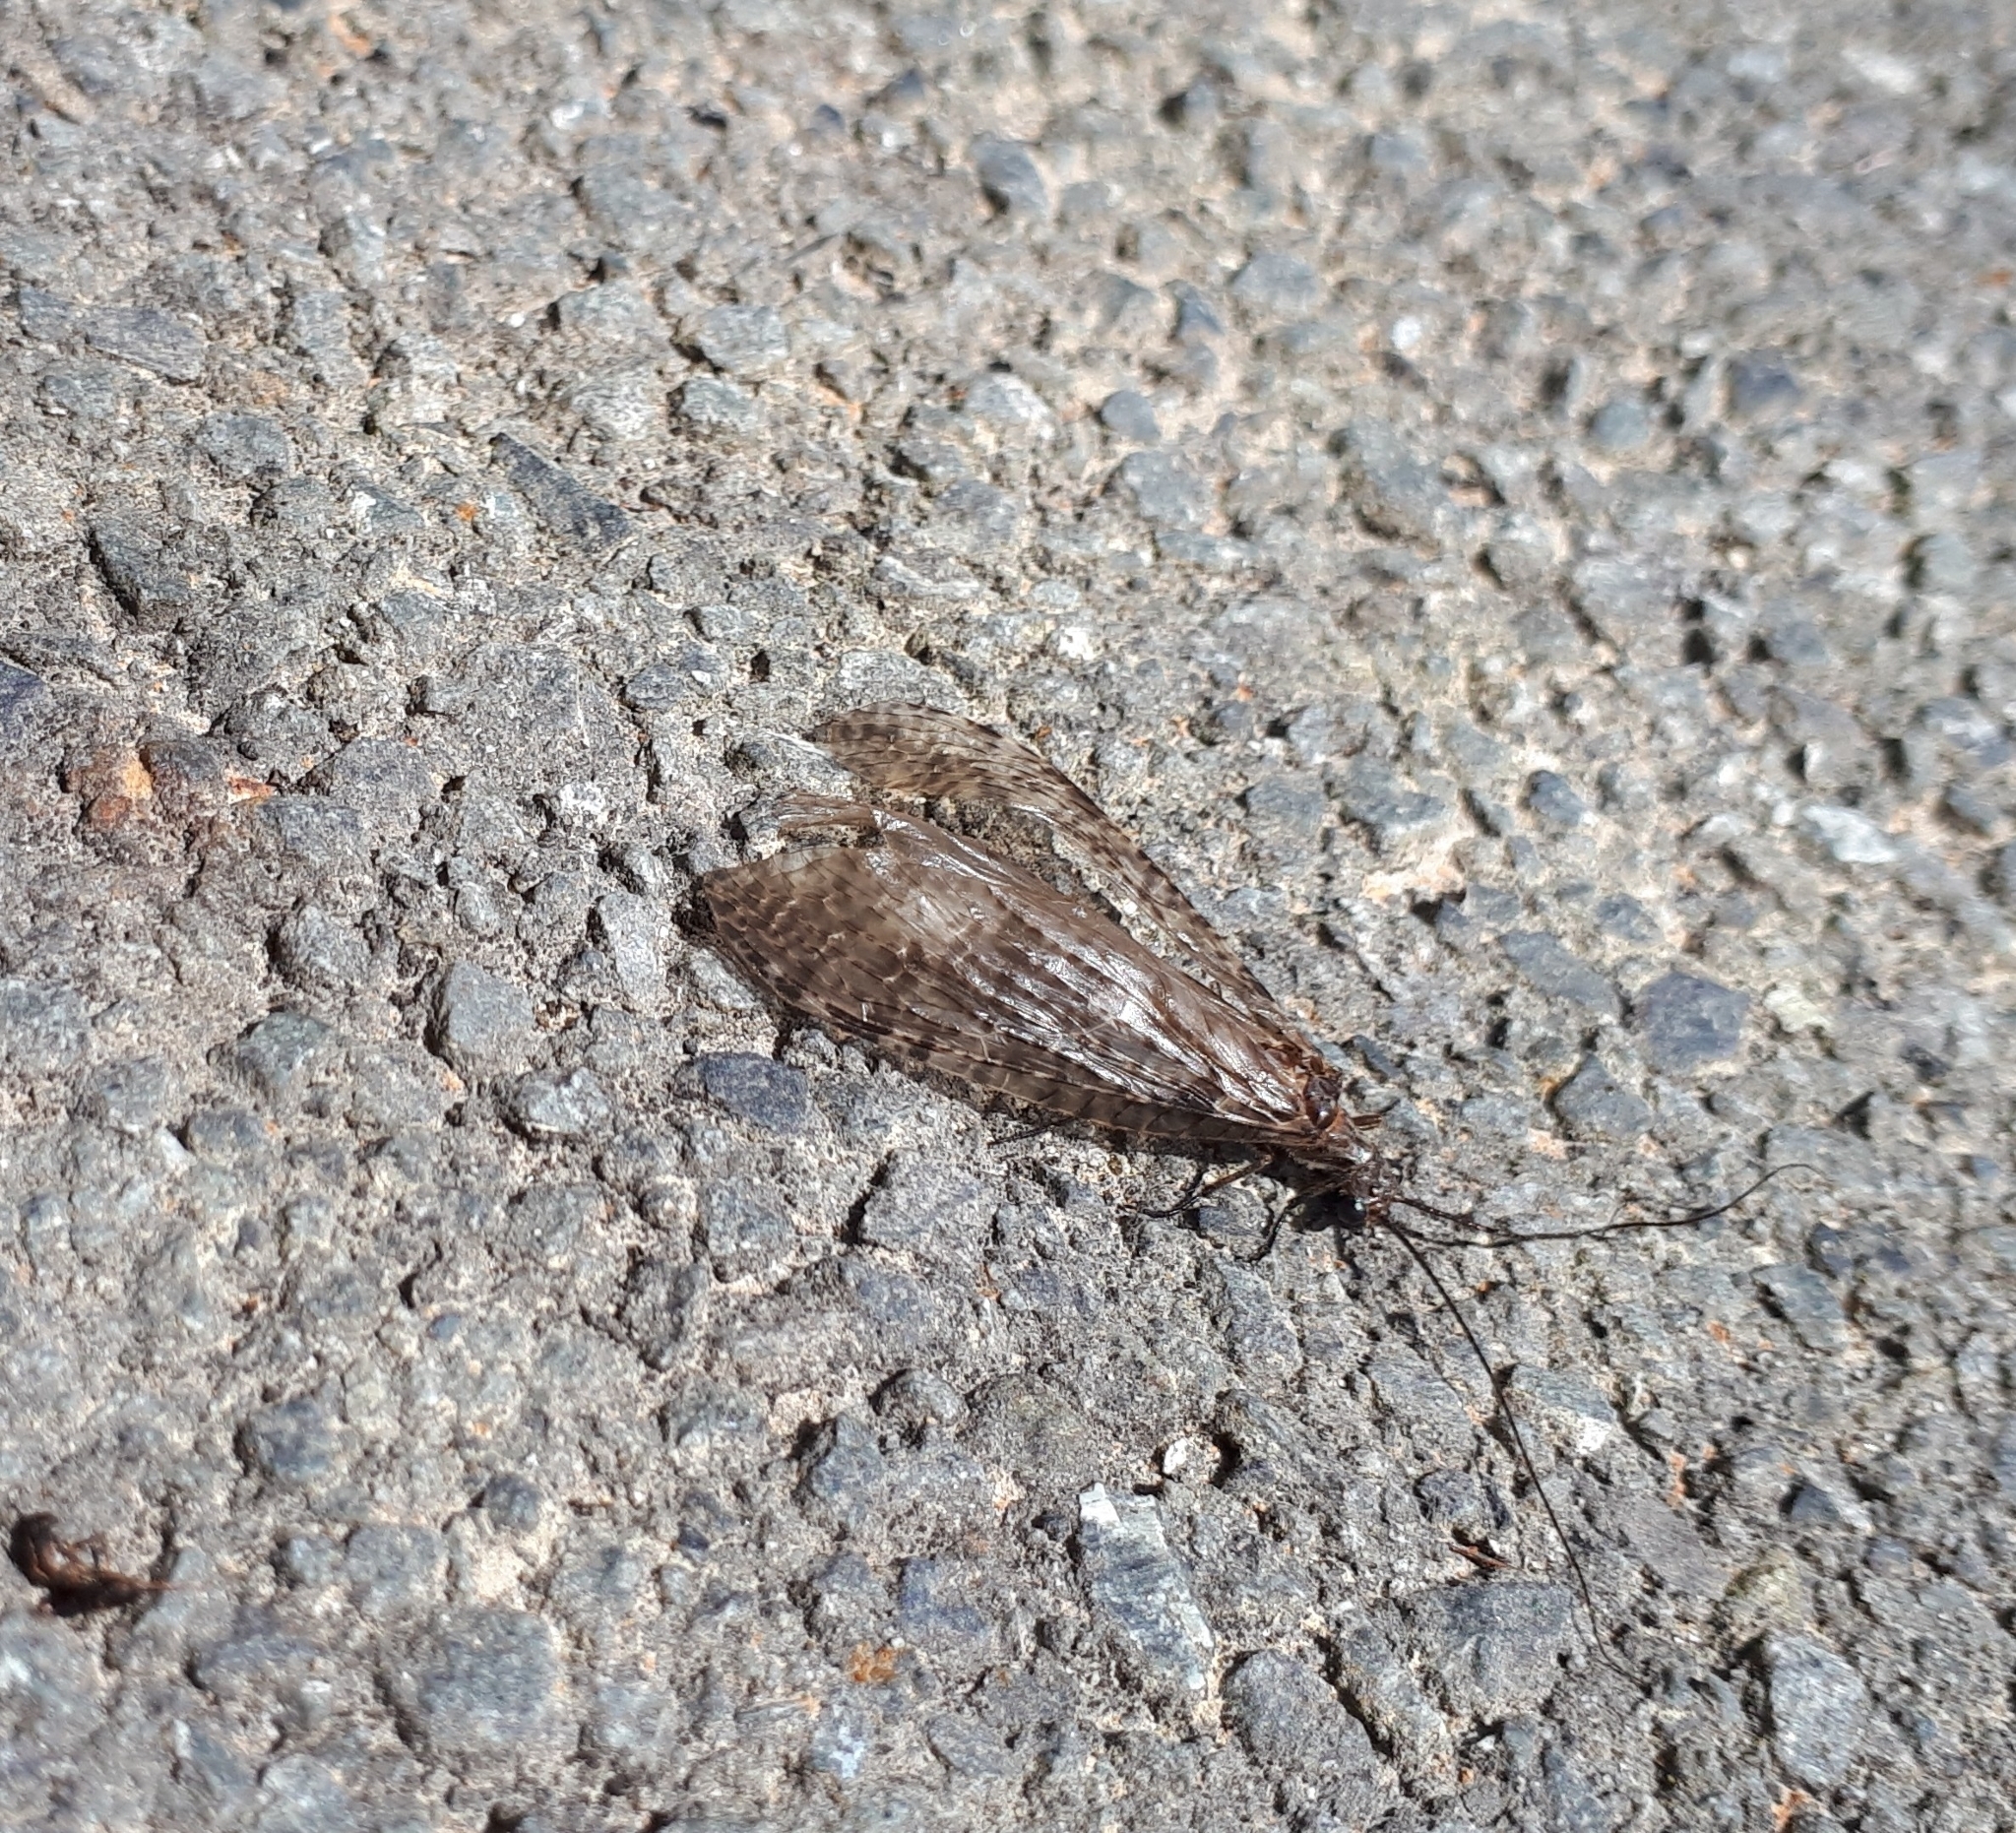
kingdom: Animalia
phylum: Arthropoda
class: Insecta
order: Megaloptera
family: Corydalidae
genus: Archichauliodes
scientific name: Archichauliodes diversus
